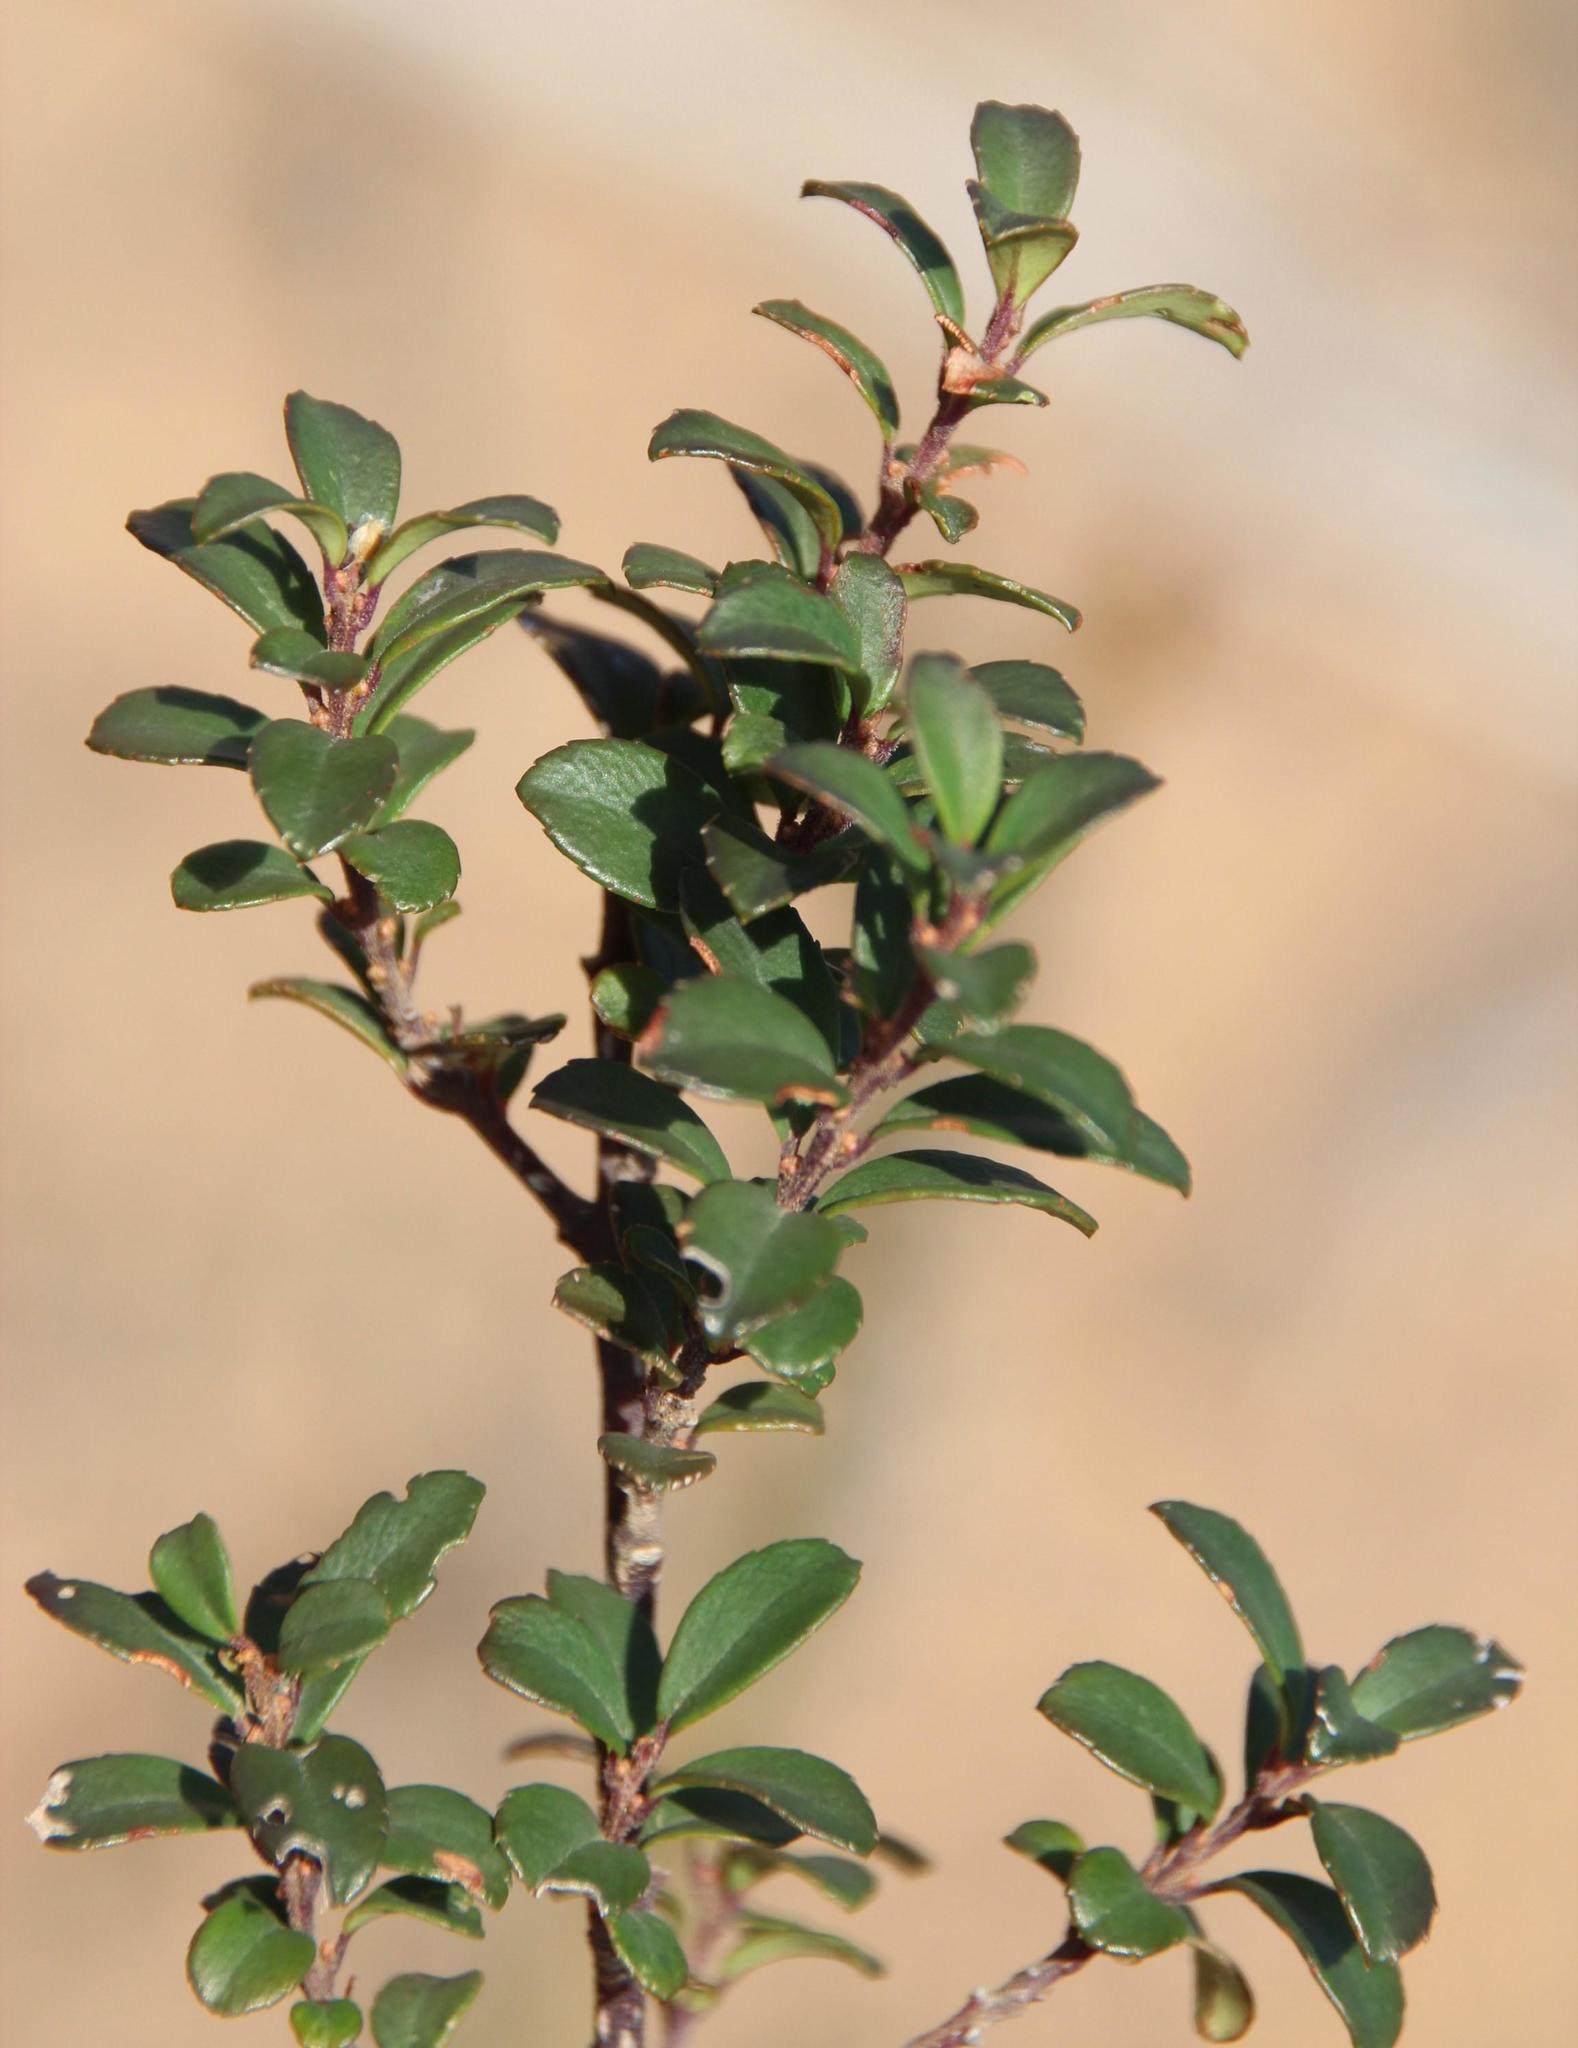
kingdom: Plantae
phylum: Tracheophyta
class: Magnoliopsida
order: Ericales
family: Primulaceae
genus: Myrsine
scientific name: Myrsine africana
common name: African-boxwood
